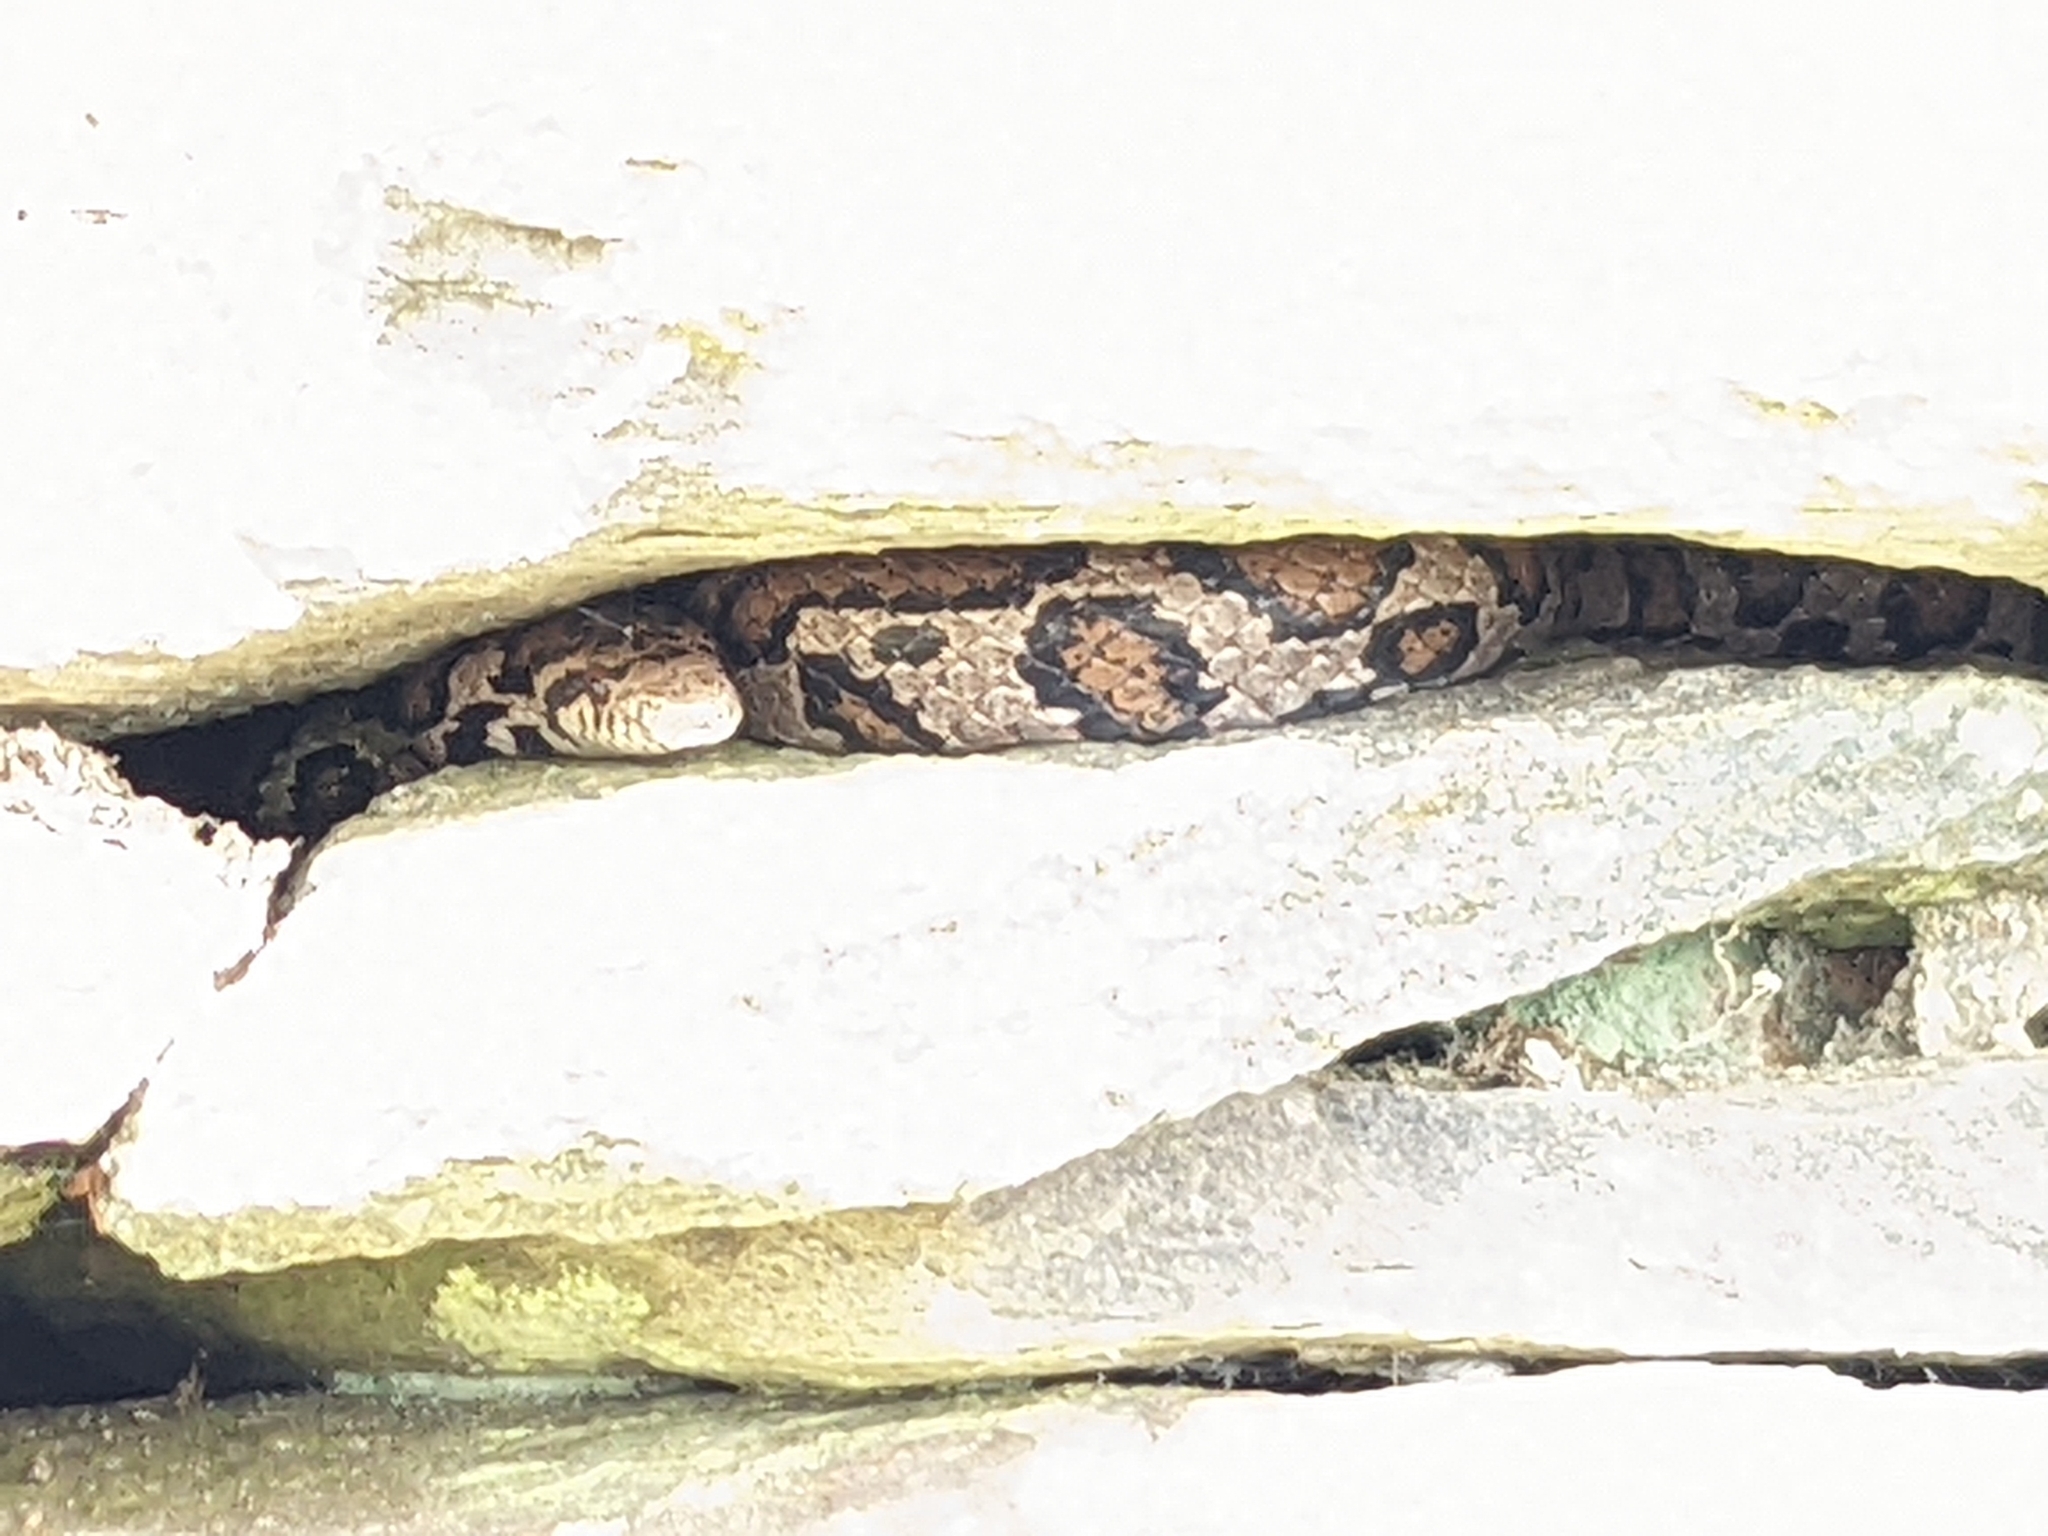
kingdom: Animalia
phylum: Chordata
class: Squamata
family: Colubridae
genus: Lampropeltis
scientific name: Lampropeltis triangulum
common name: Eastern milksnake
